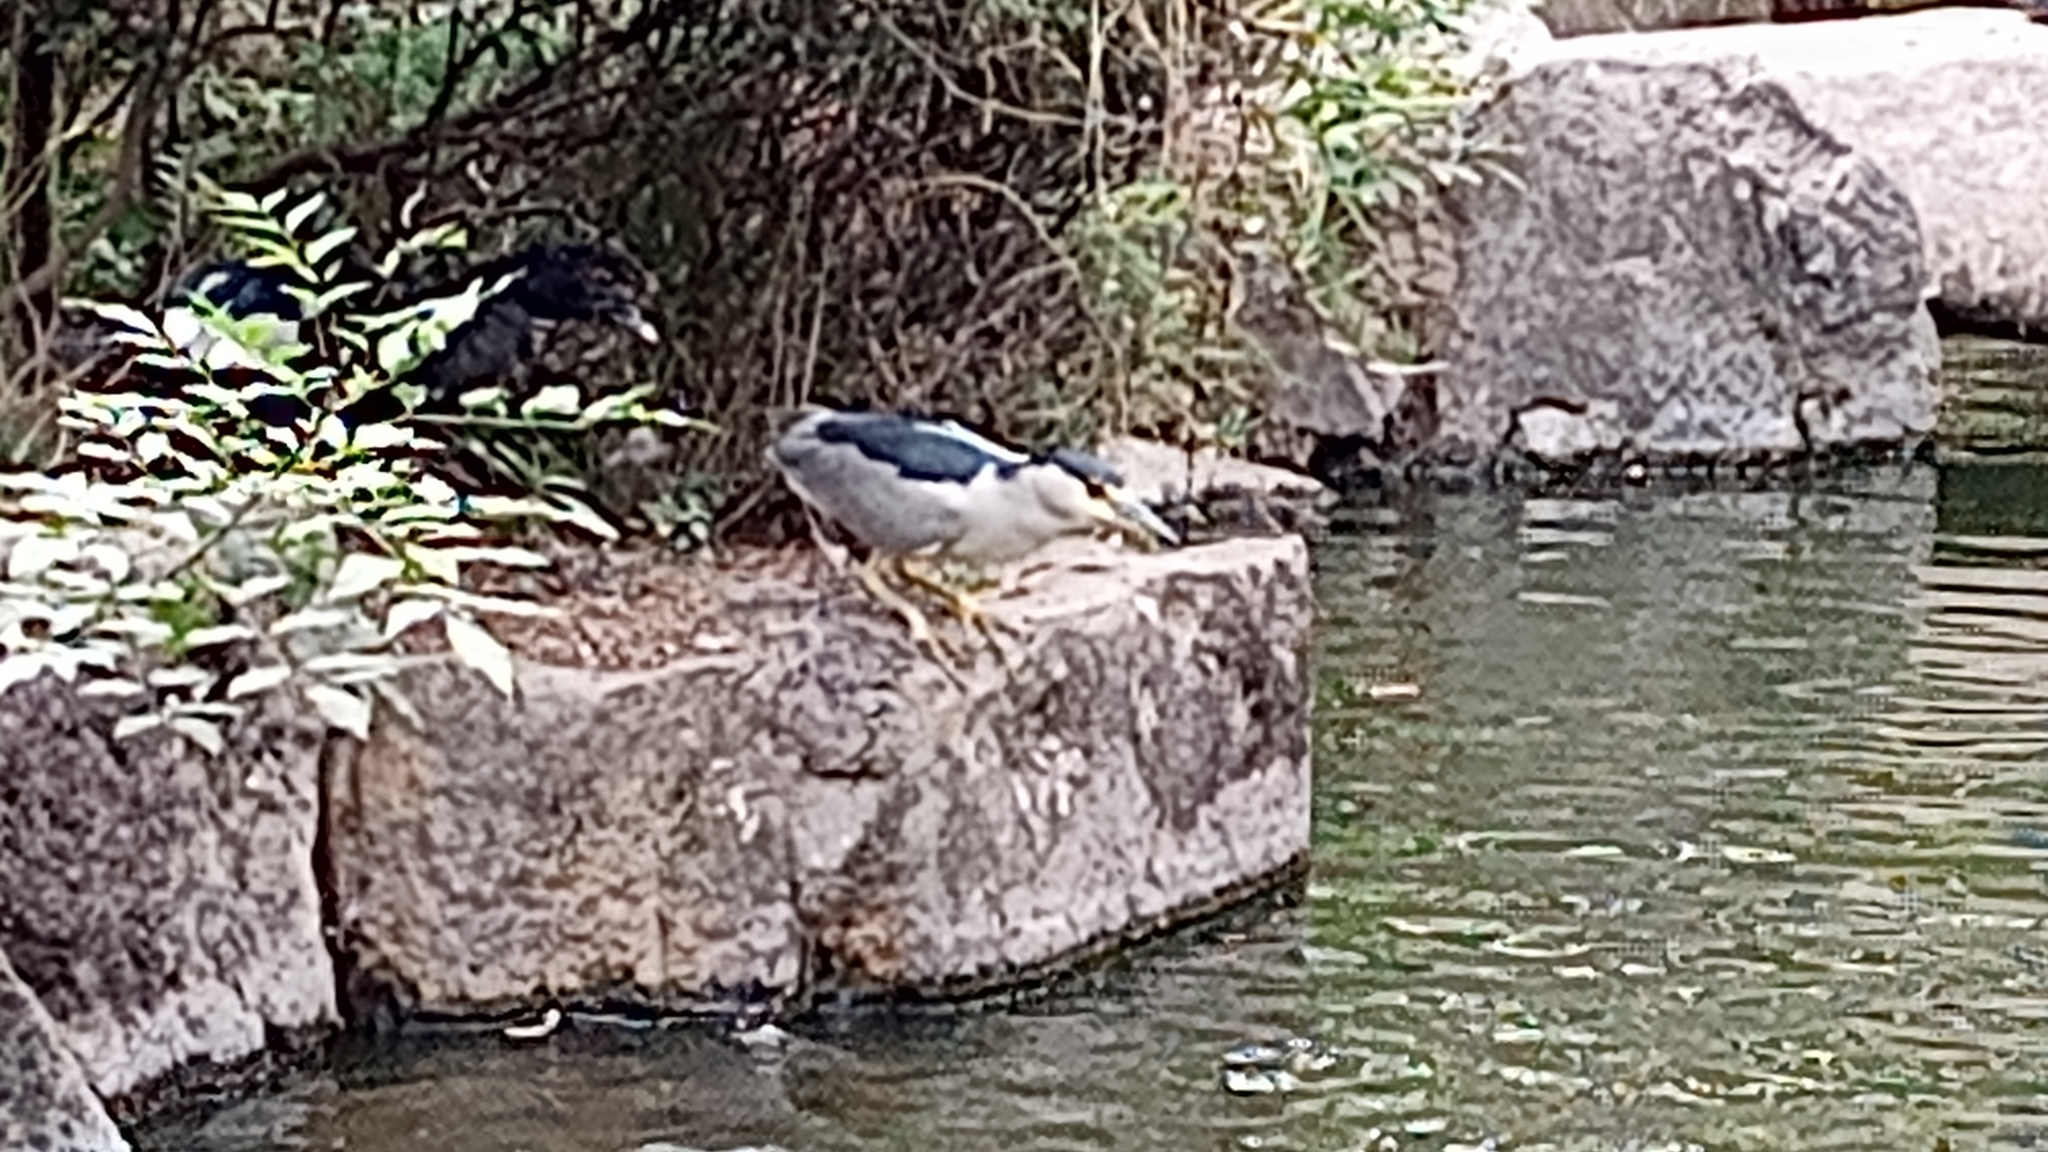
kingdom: Animalia
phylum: Chordata
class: Aves
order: Pelecaniformes
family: Ardeidae
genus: Nycticorax
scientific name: Nycticorax nycticorax
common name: Black-crowned night heron
